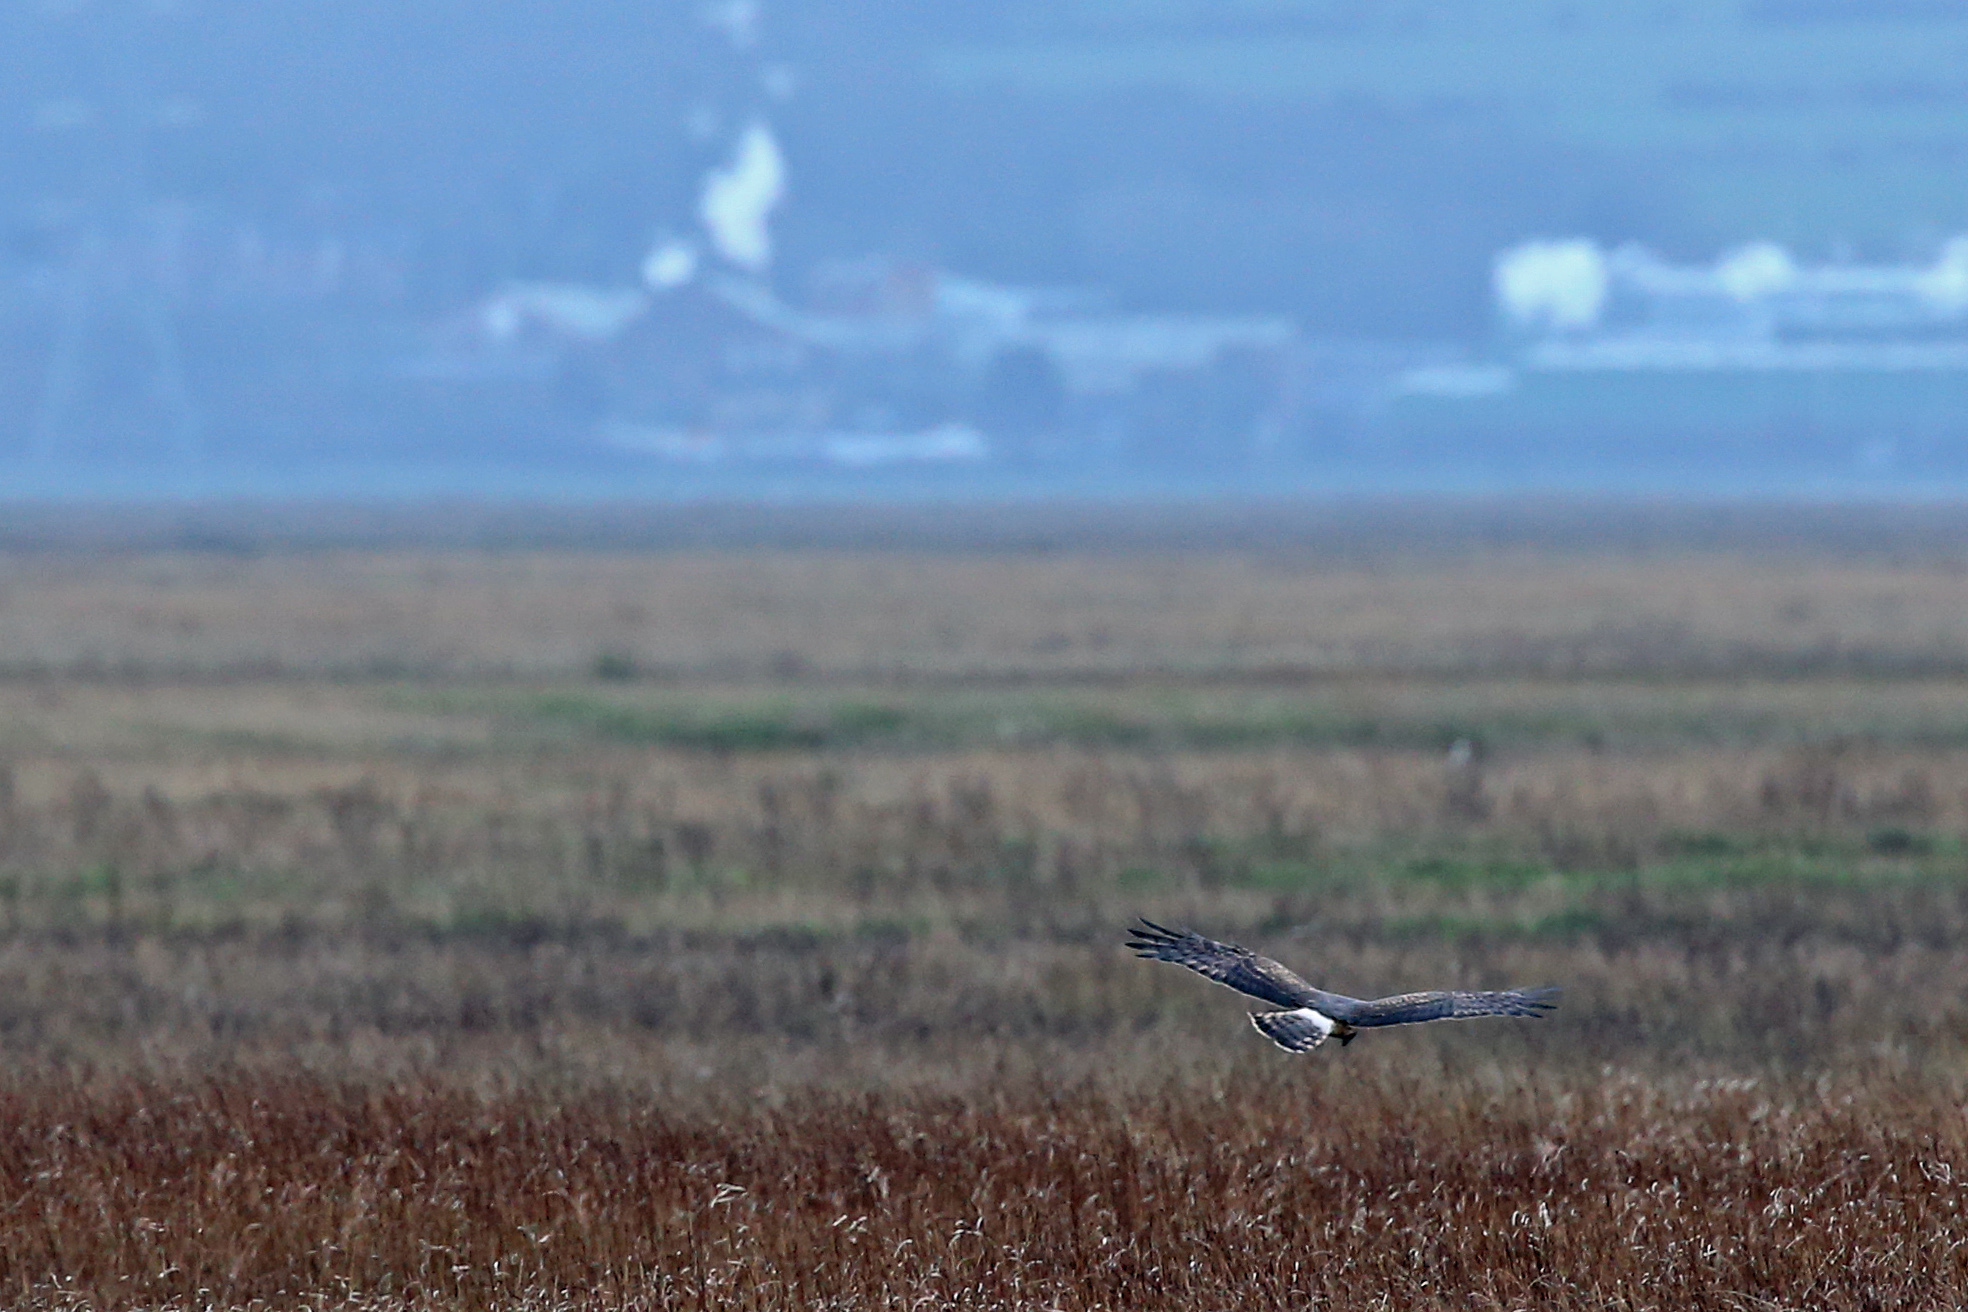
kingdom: Animalia
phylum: Chordata
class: Aves
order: Accipitriformes
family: Accipitridae
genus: Circus
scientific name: Circus cyaneus
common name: Hen harrier
